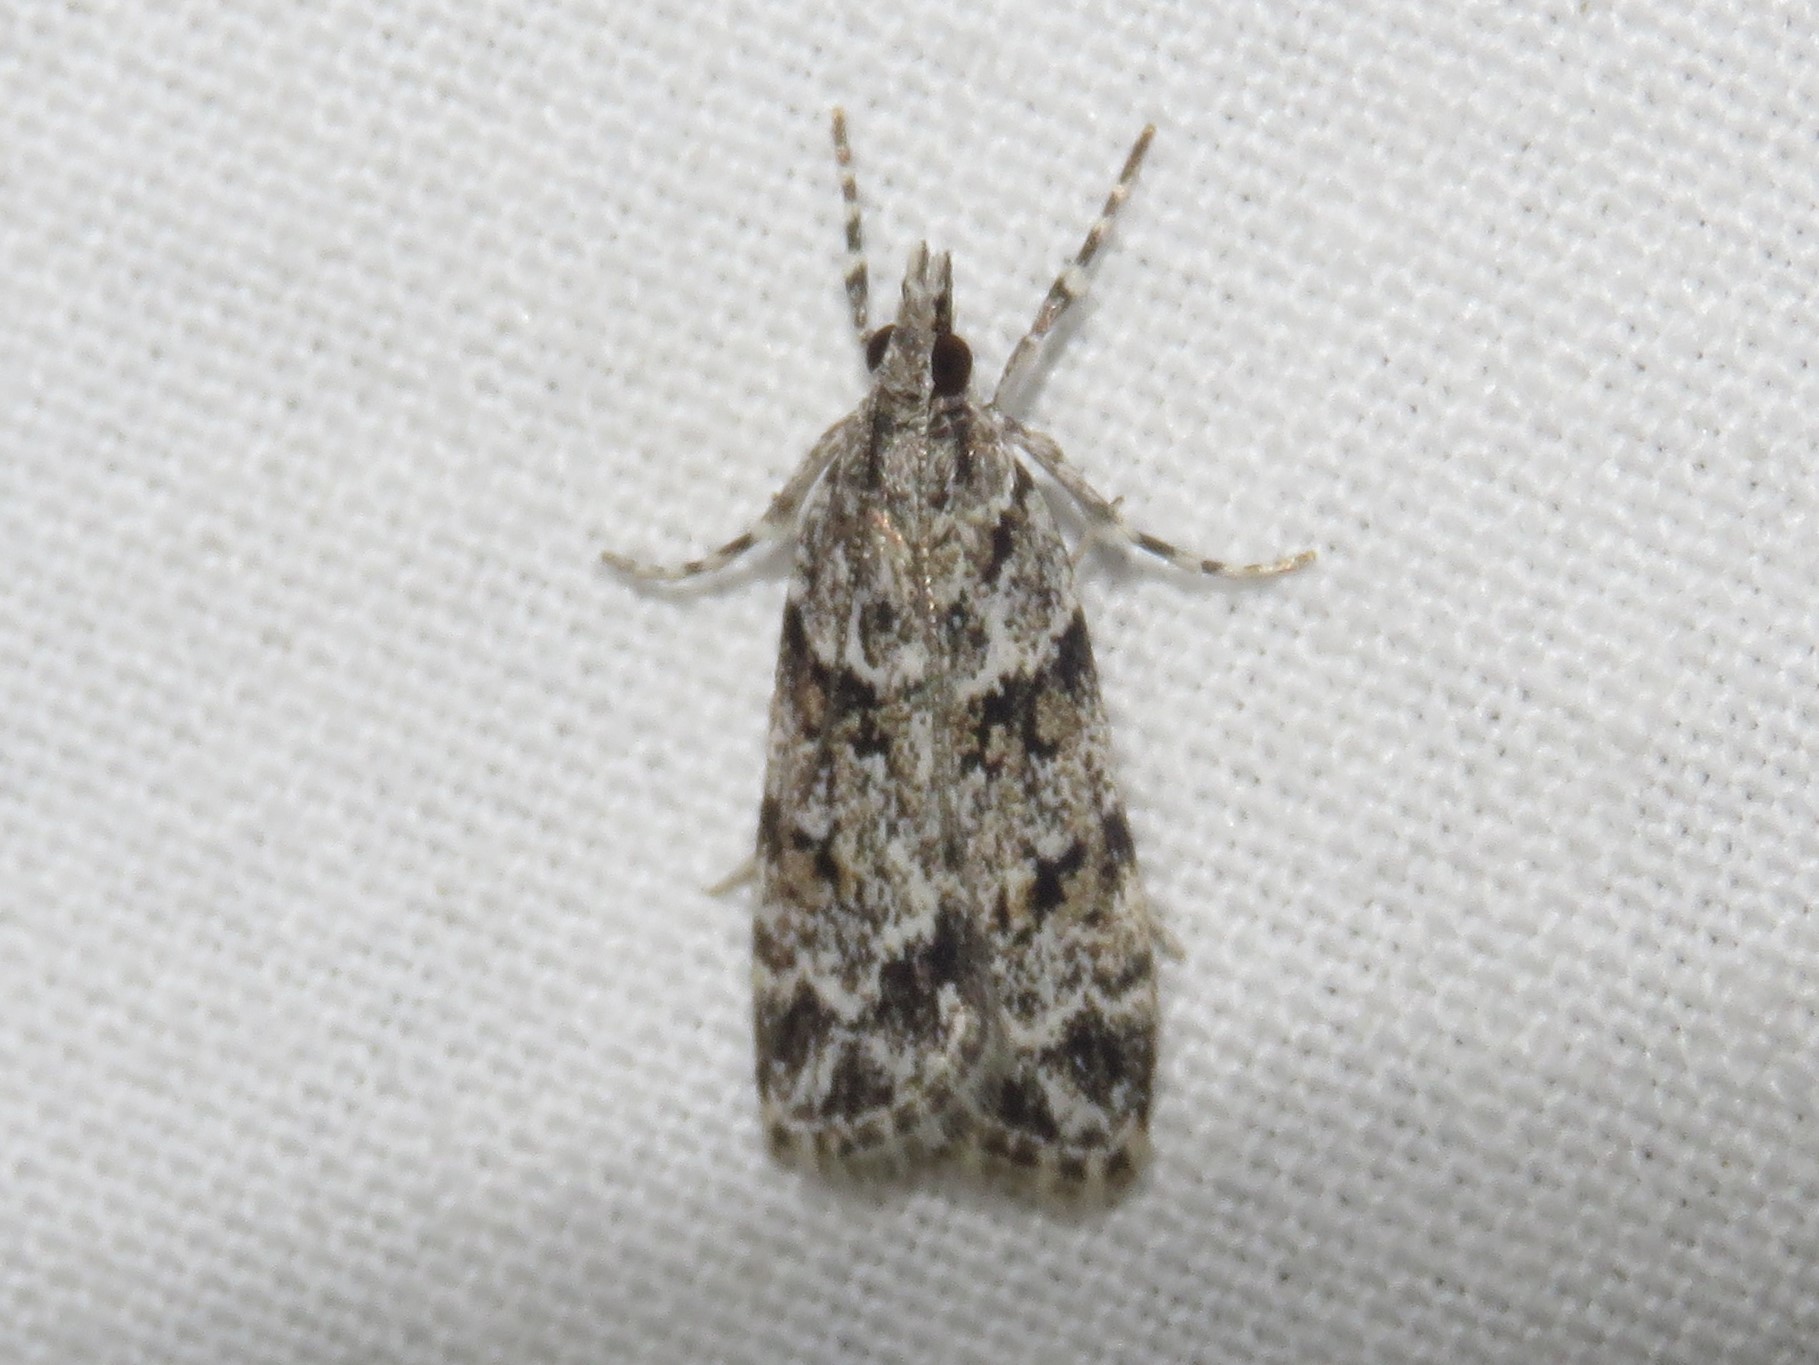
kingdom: Animalia
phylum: Arthropoda
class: Insecta
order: Lepidoptera
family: Crambidae
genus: Scoparia
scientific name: Scoparia biplagialis
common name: Double-striped scoparia moth
